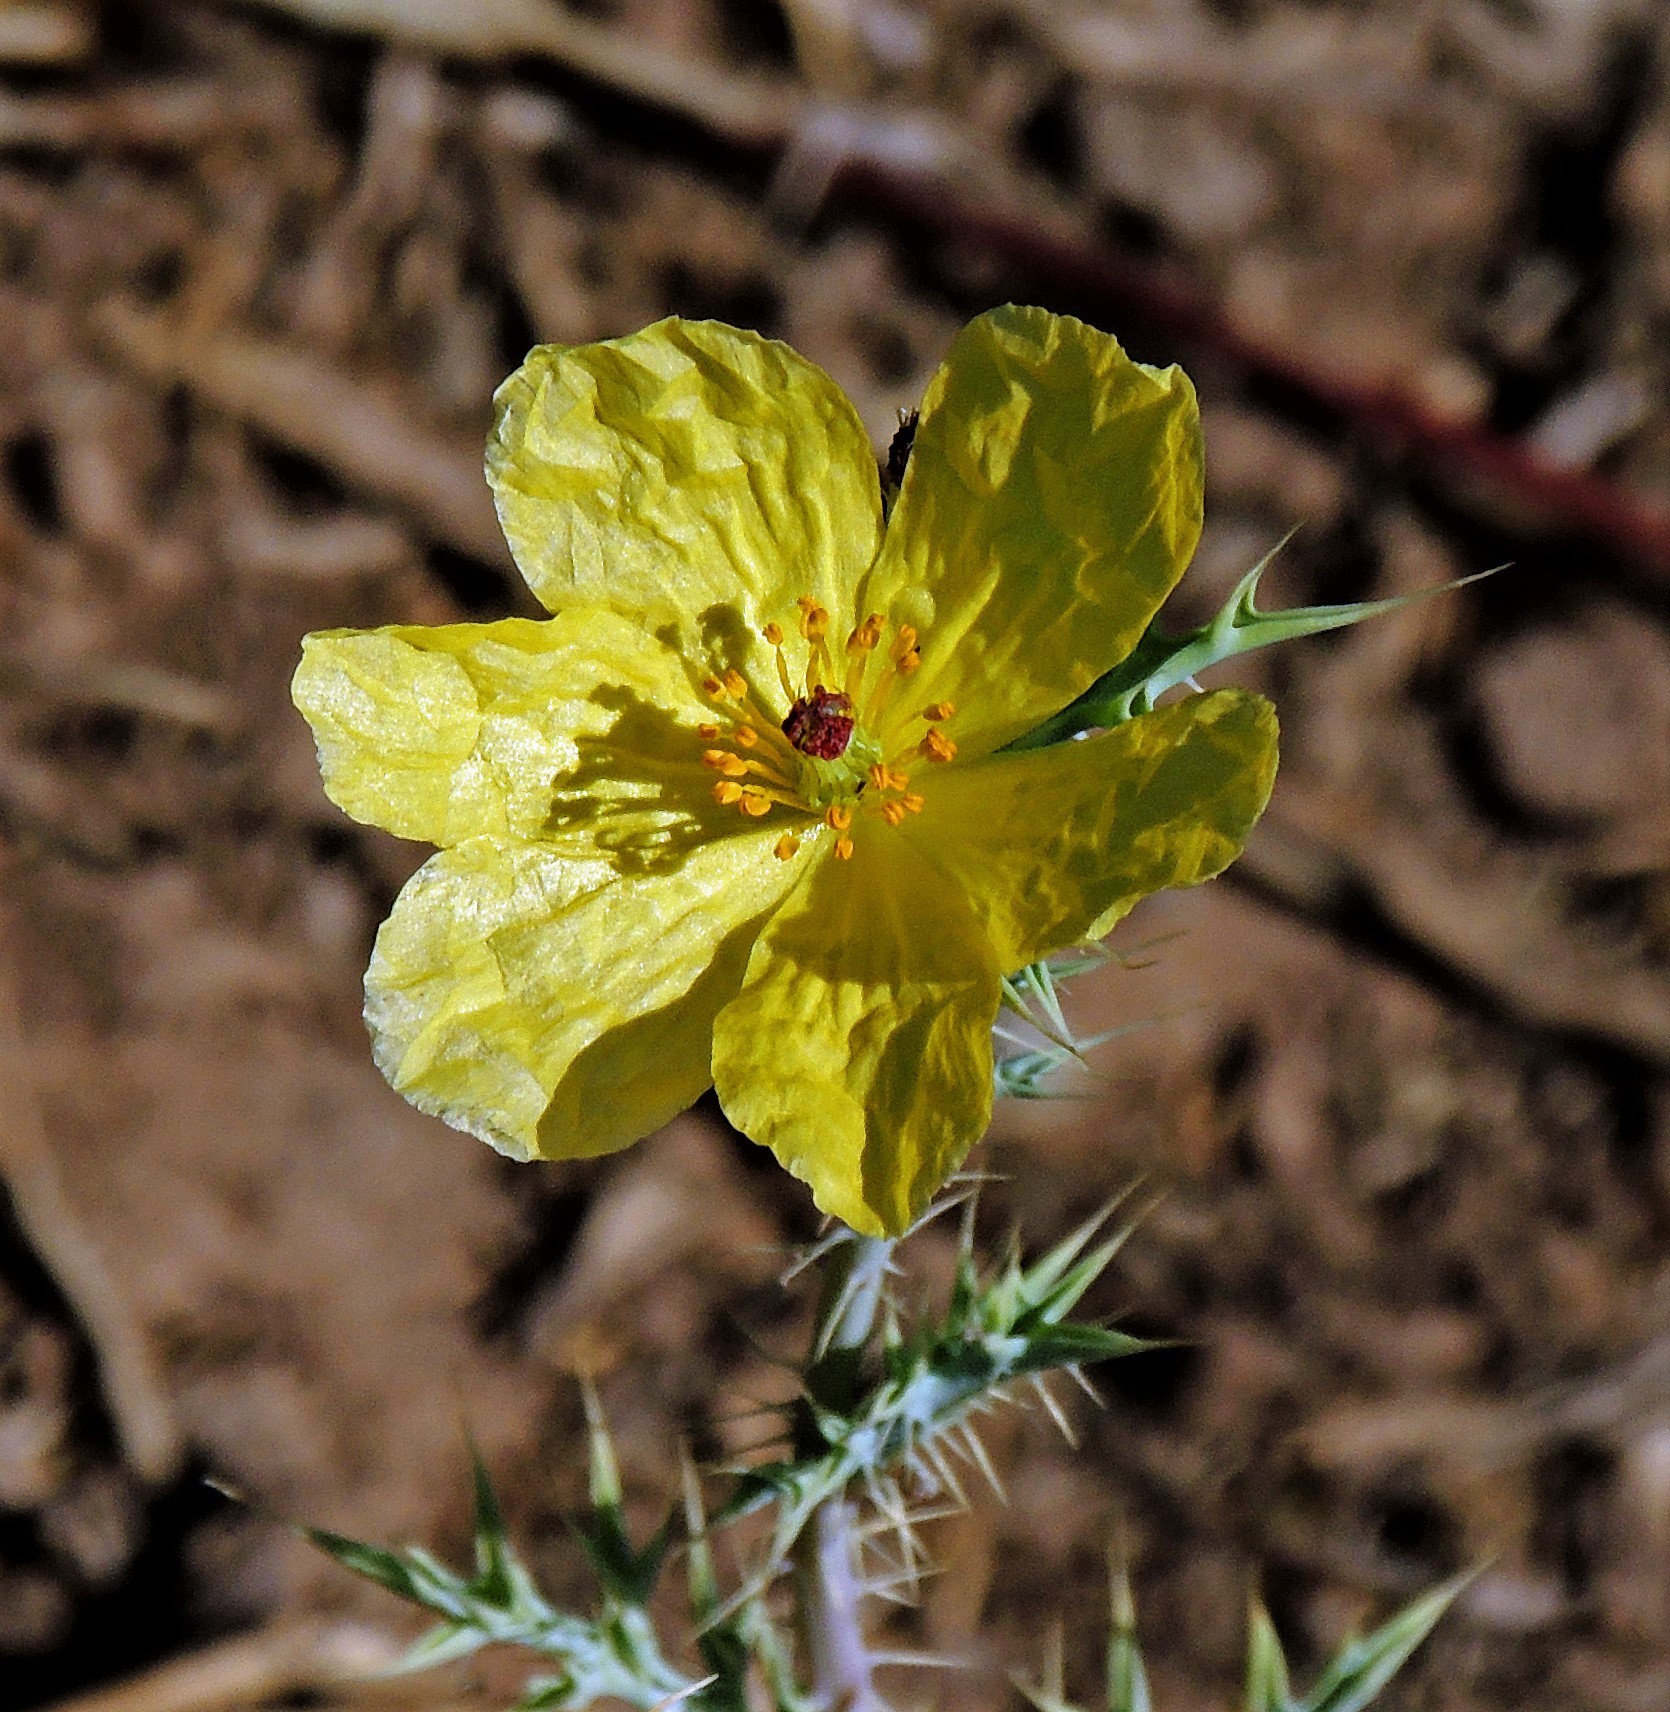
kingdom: Plantae
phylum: Tracheophyta
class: Magnoliopsida
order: Ranunculales
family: Papaveraceae
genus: Argemone
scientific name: Argemone subfusiformis
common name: American-poppy
